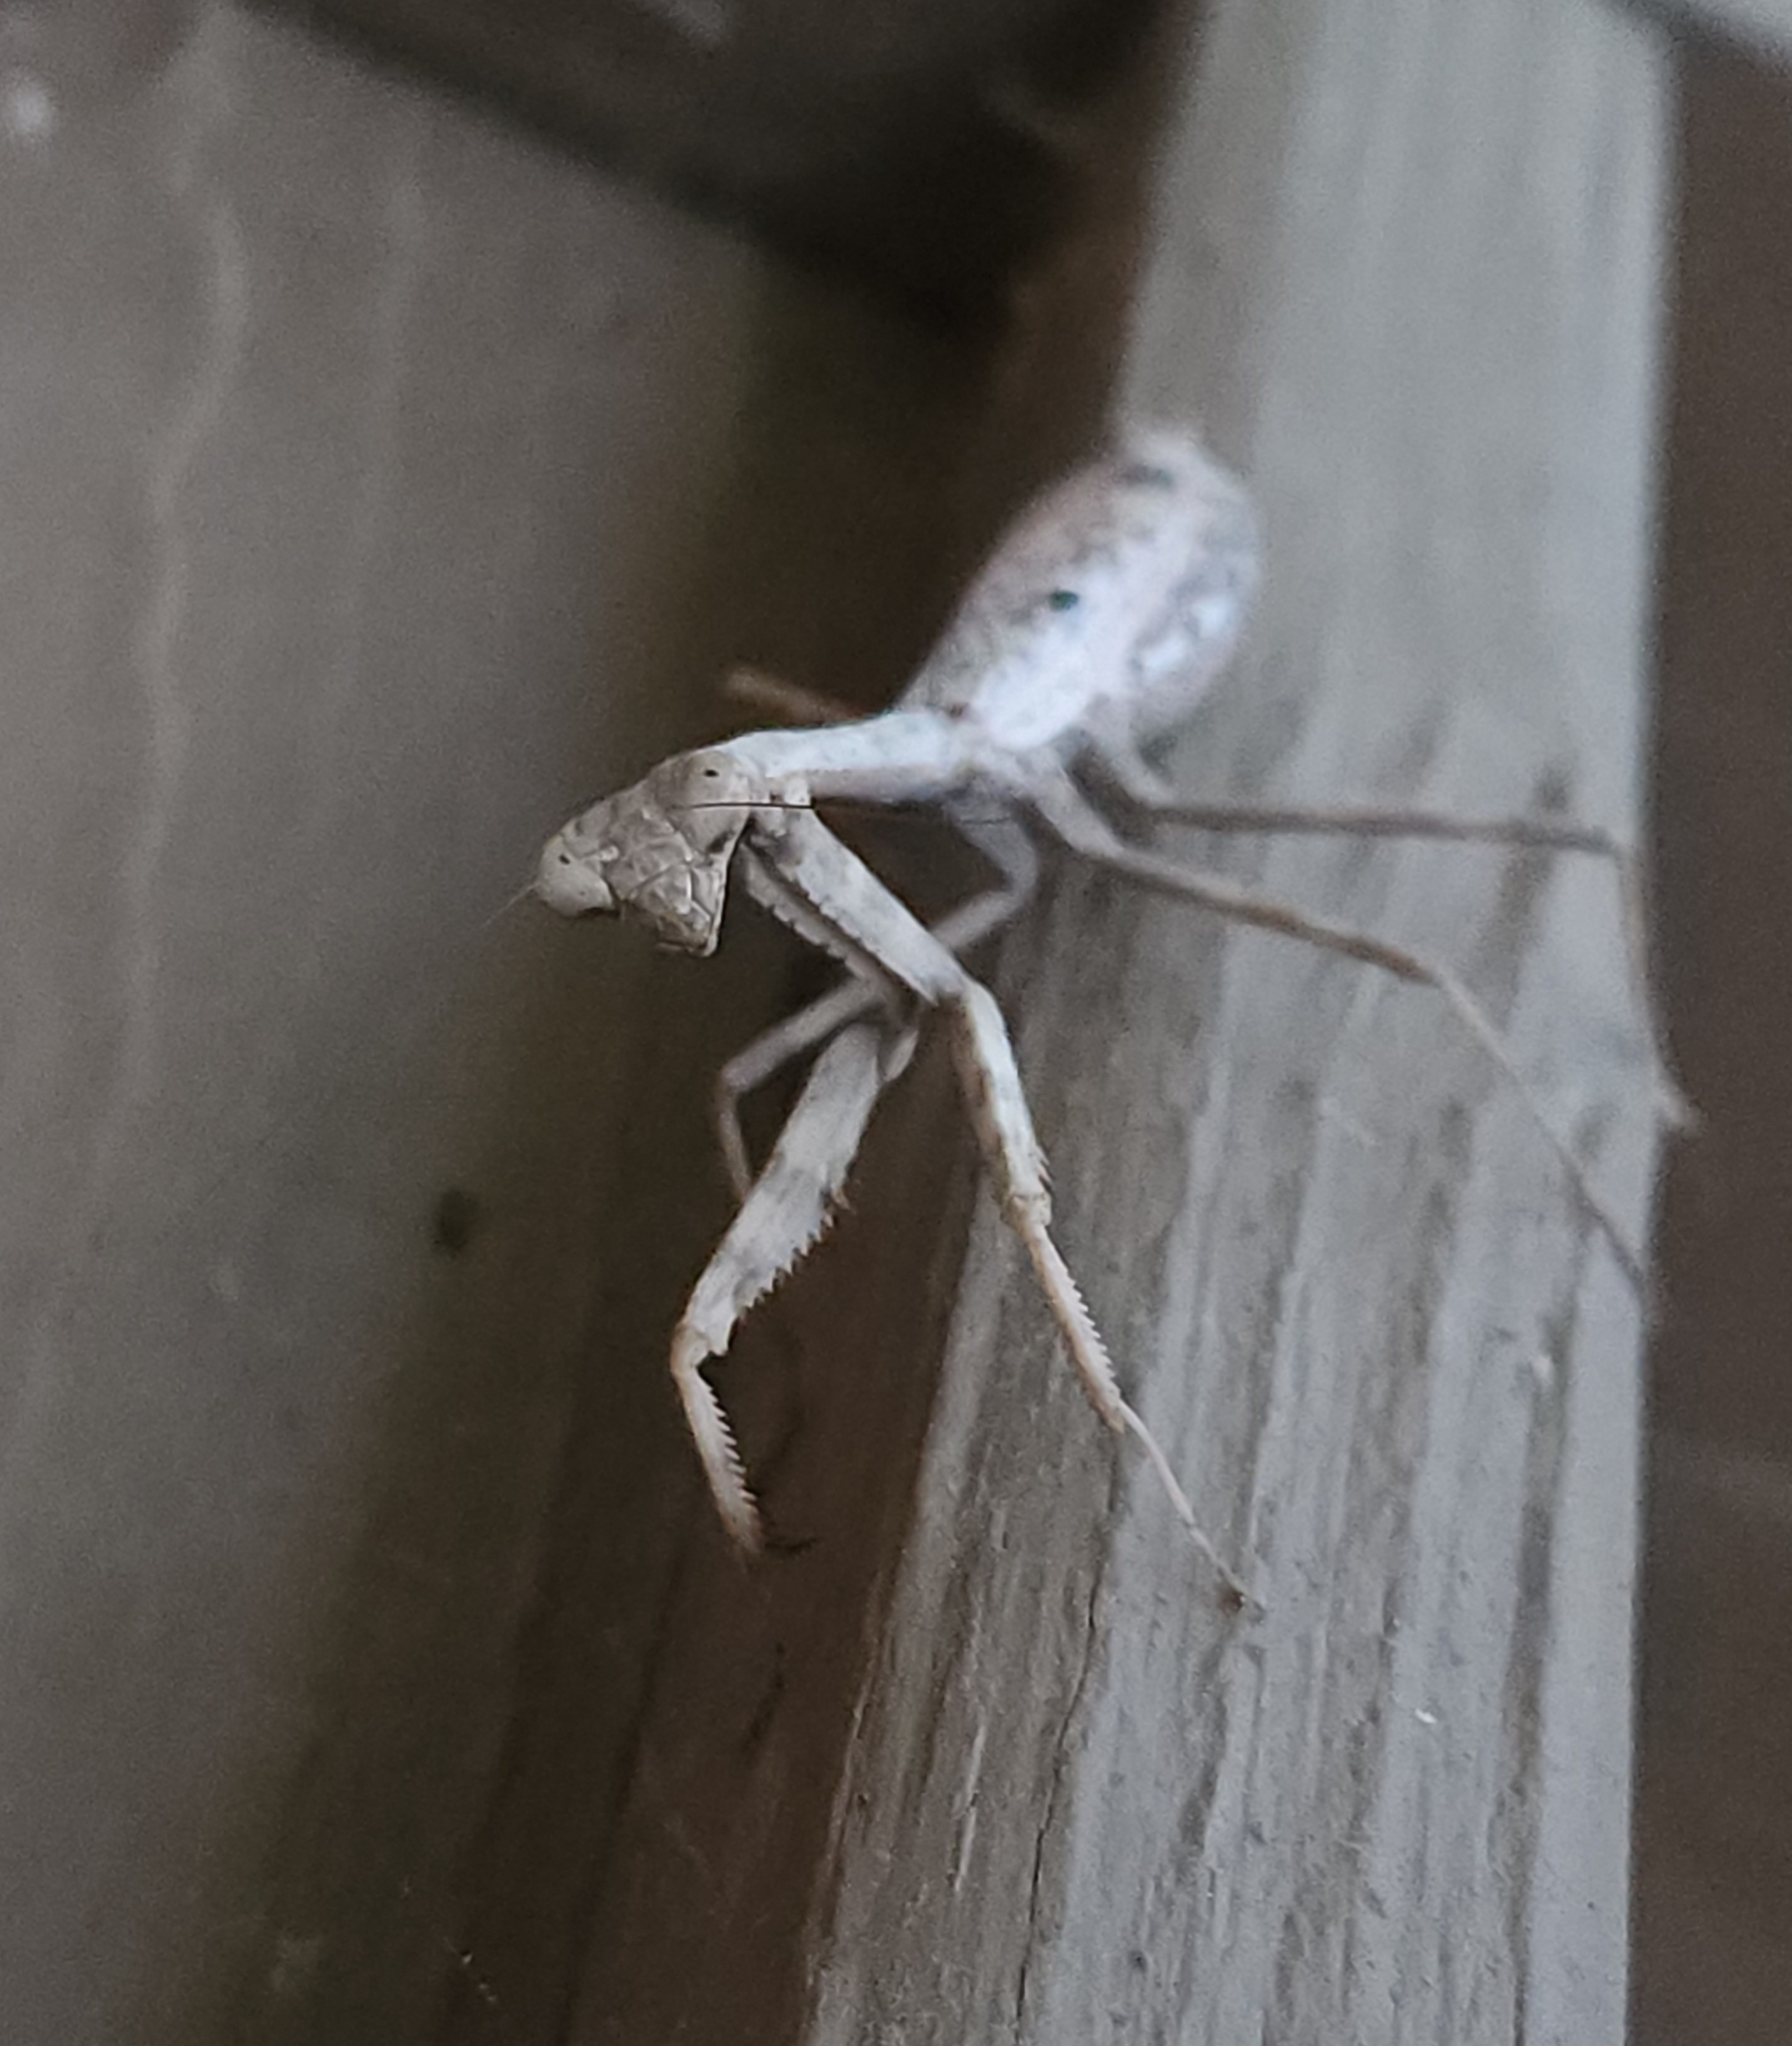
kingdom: Animalia
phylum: Arthropoda
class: Insecta
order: Mantodea
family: Mantidae
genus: Stagmomantis
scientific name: Stagmomantis carolina
